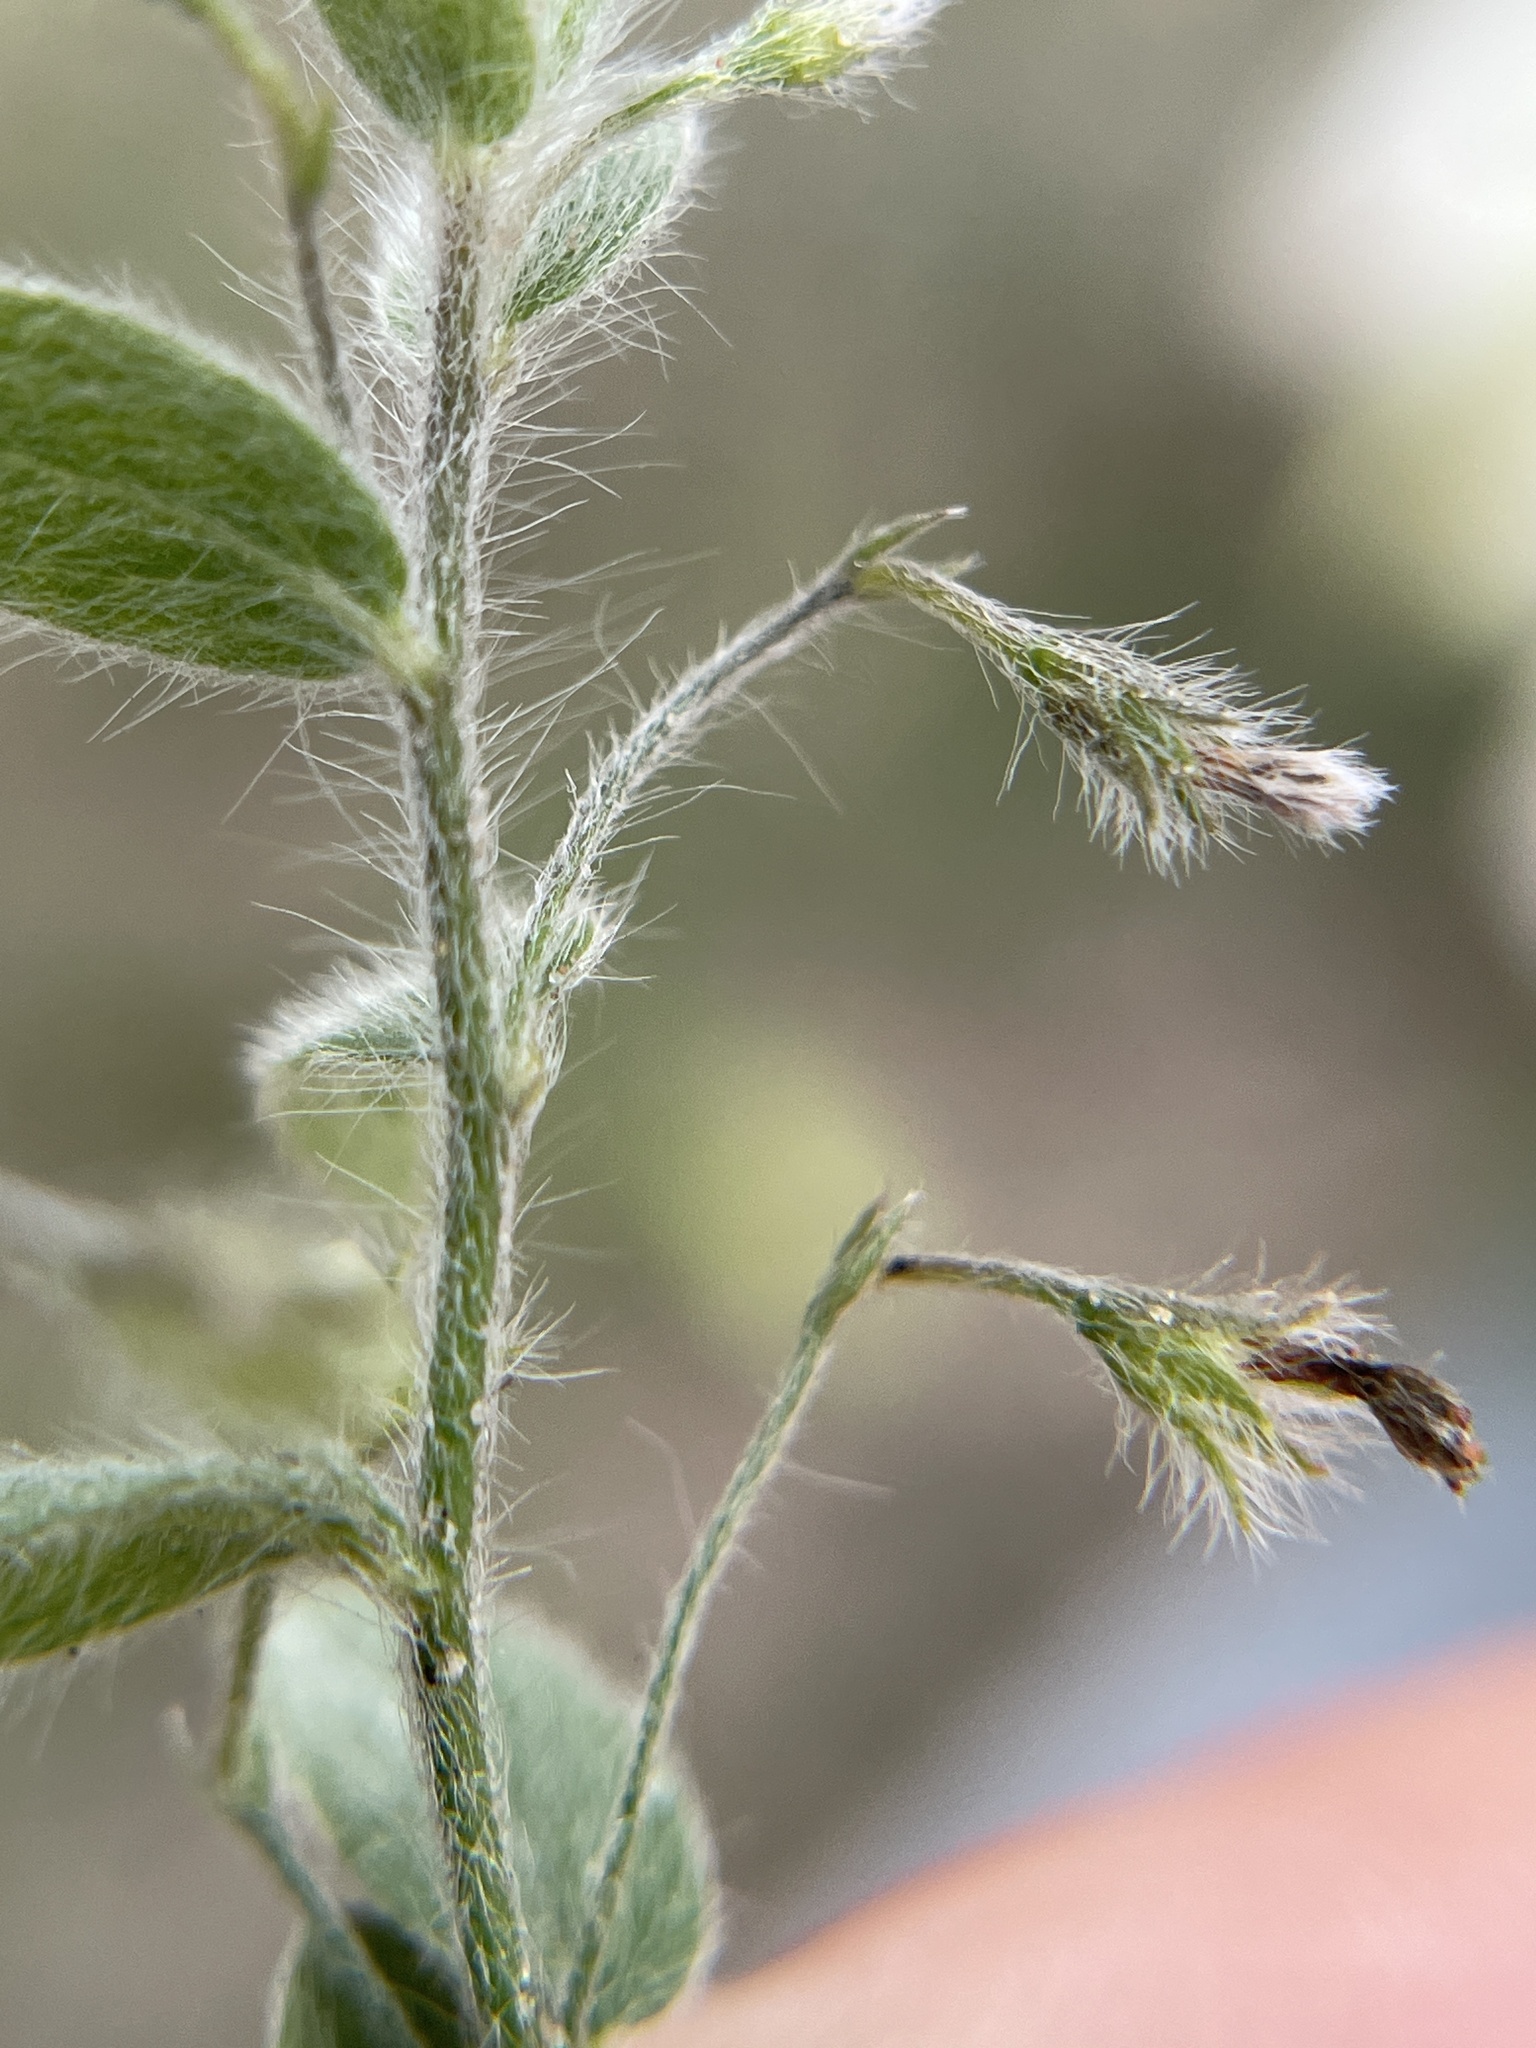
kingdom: Plantae
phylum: Tracheophyta
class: Magnoliopsida
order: Solanales
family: Convolvulaceae
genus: Evolvulus
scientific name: Evolvulus alsinoides
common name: Slender dwarf morning-glory
